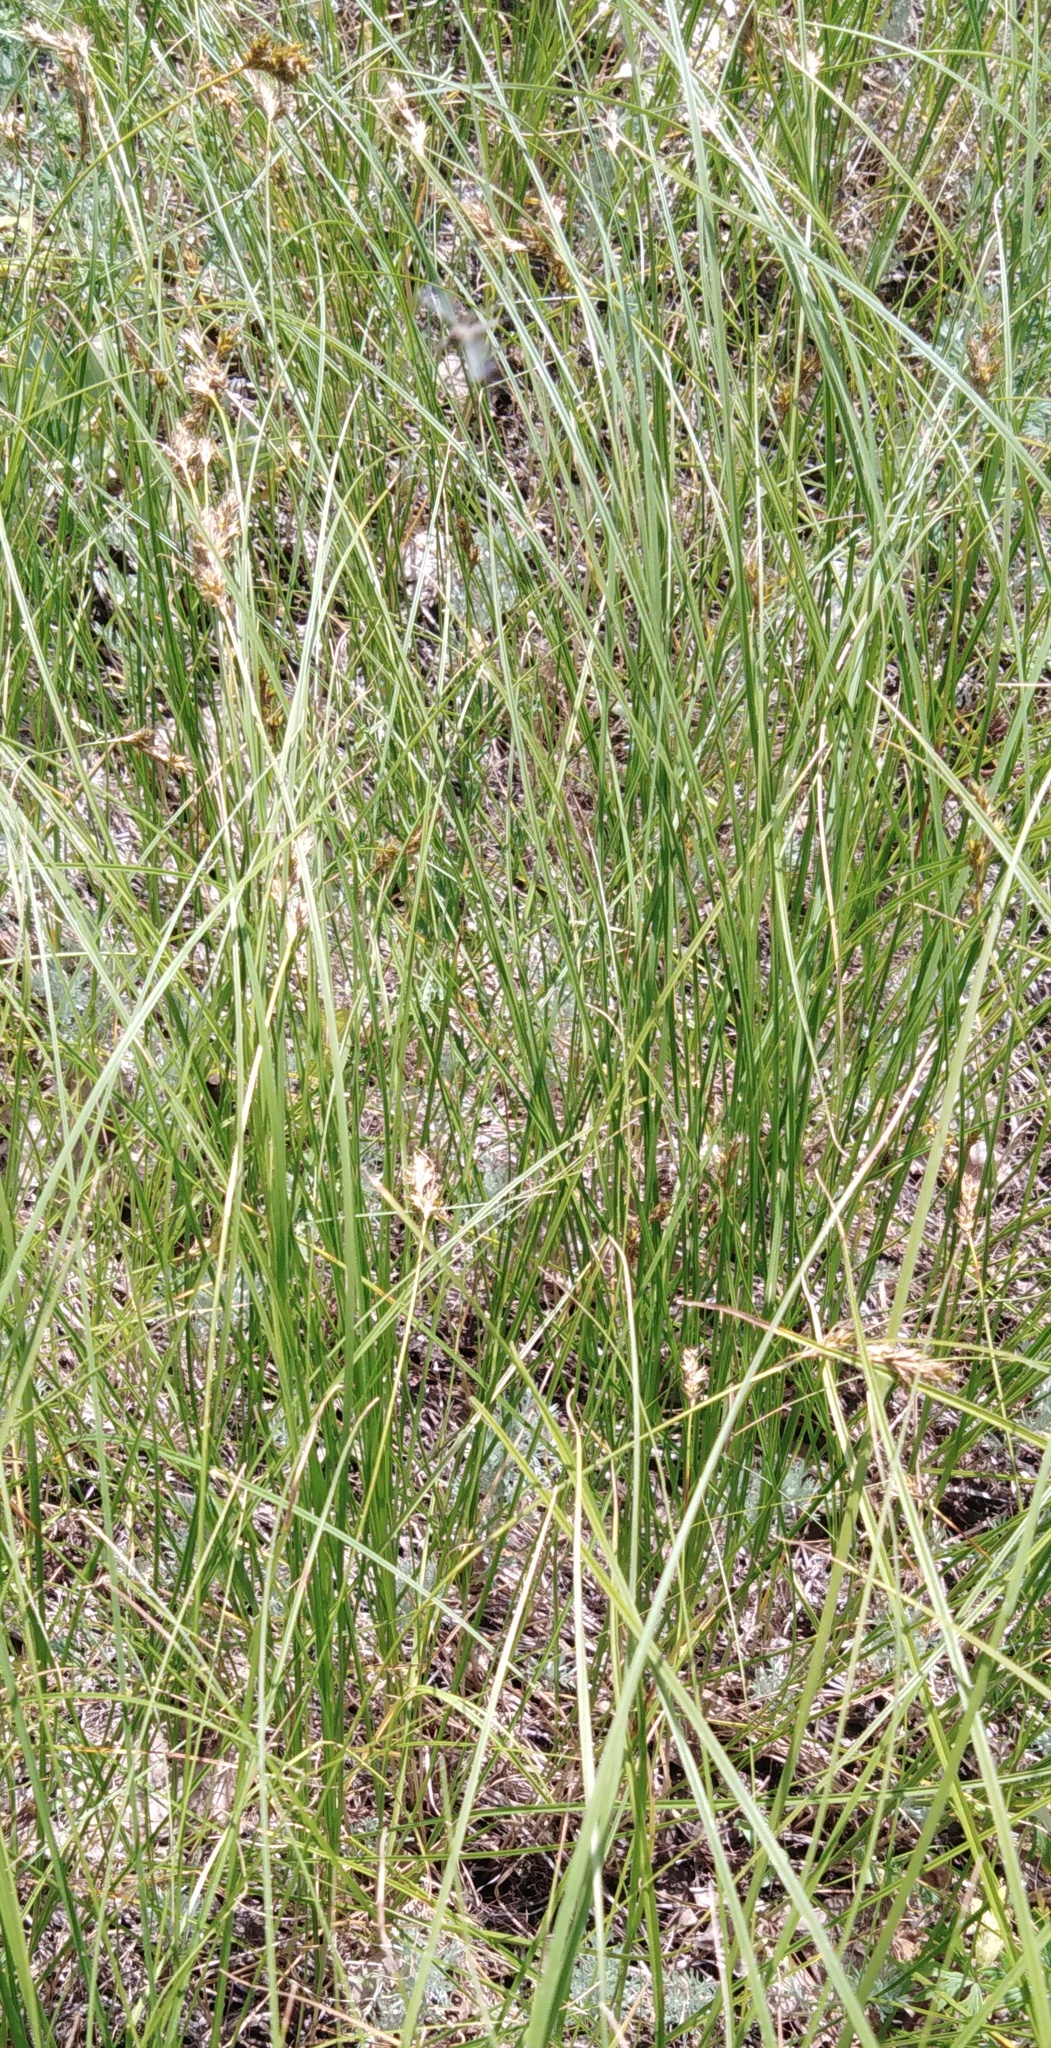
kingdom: Plantae
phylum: Tracheophyta
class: Liliopsida
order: Poales
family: Cyperaceae
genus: Carex
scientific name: Carex praecox
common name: Early sedge
